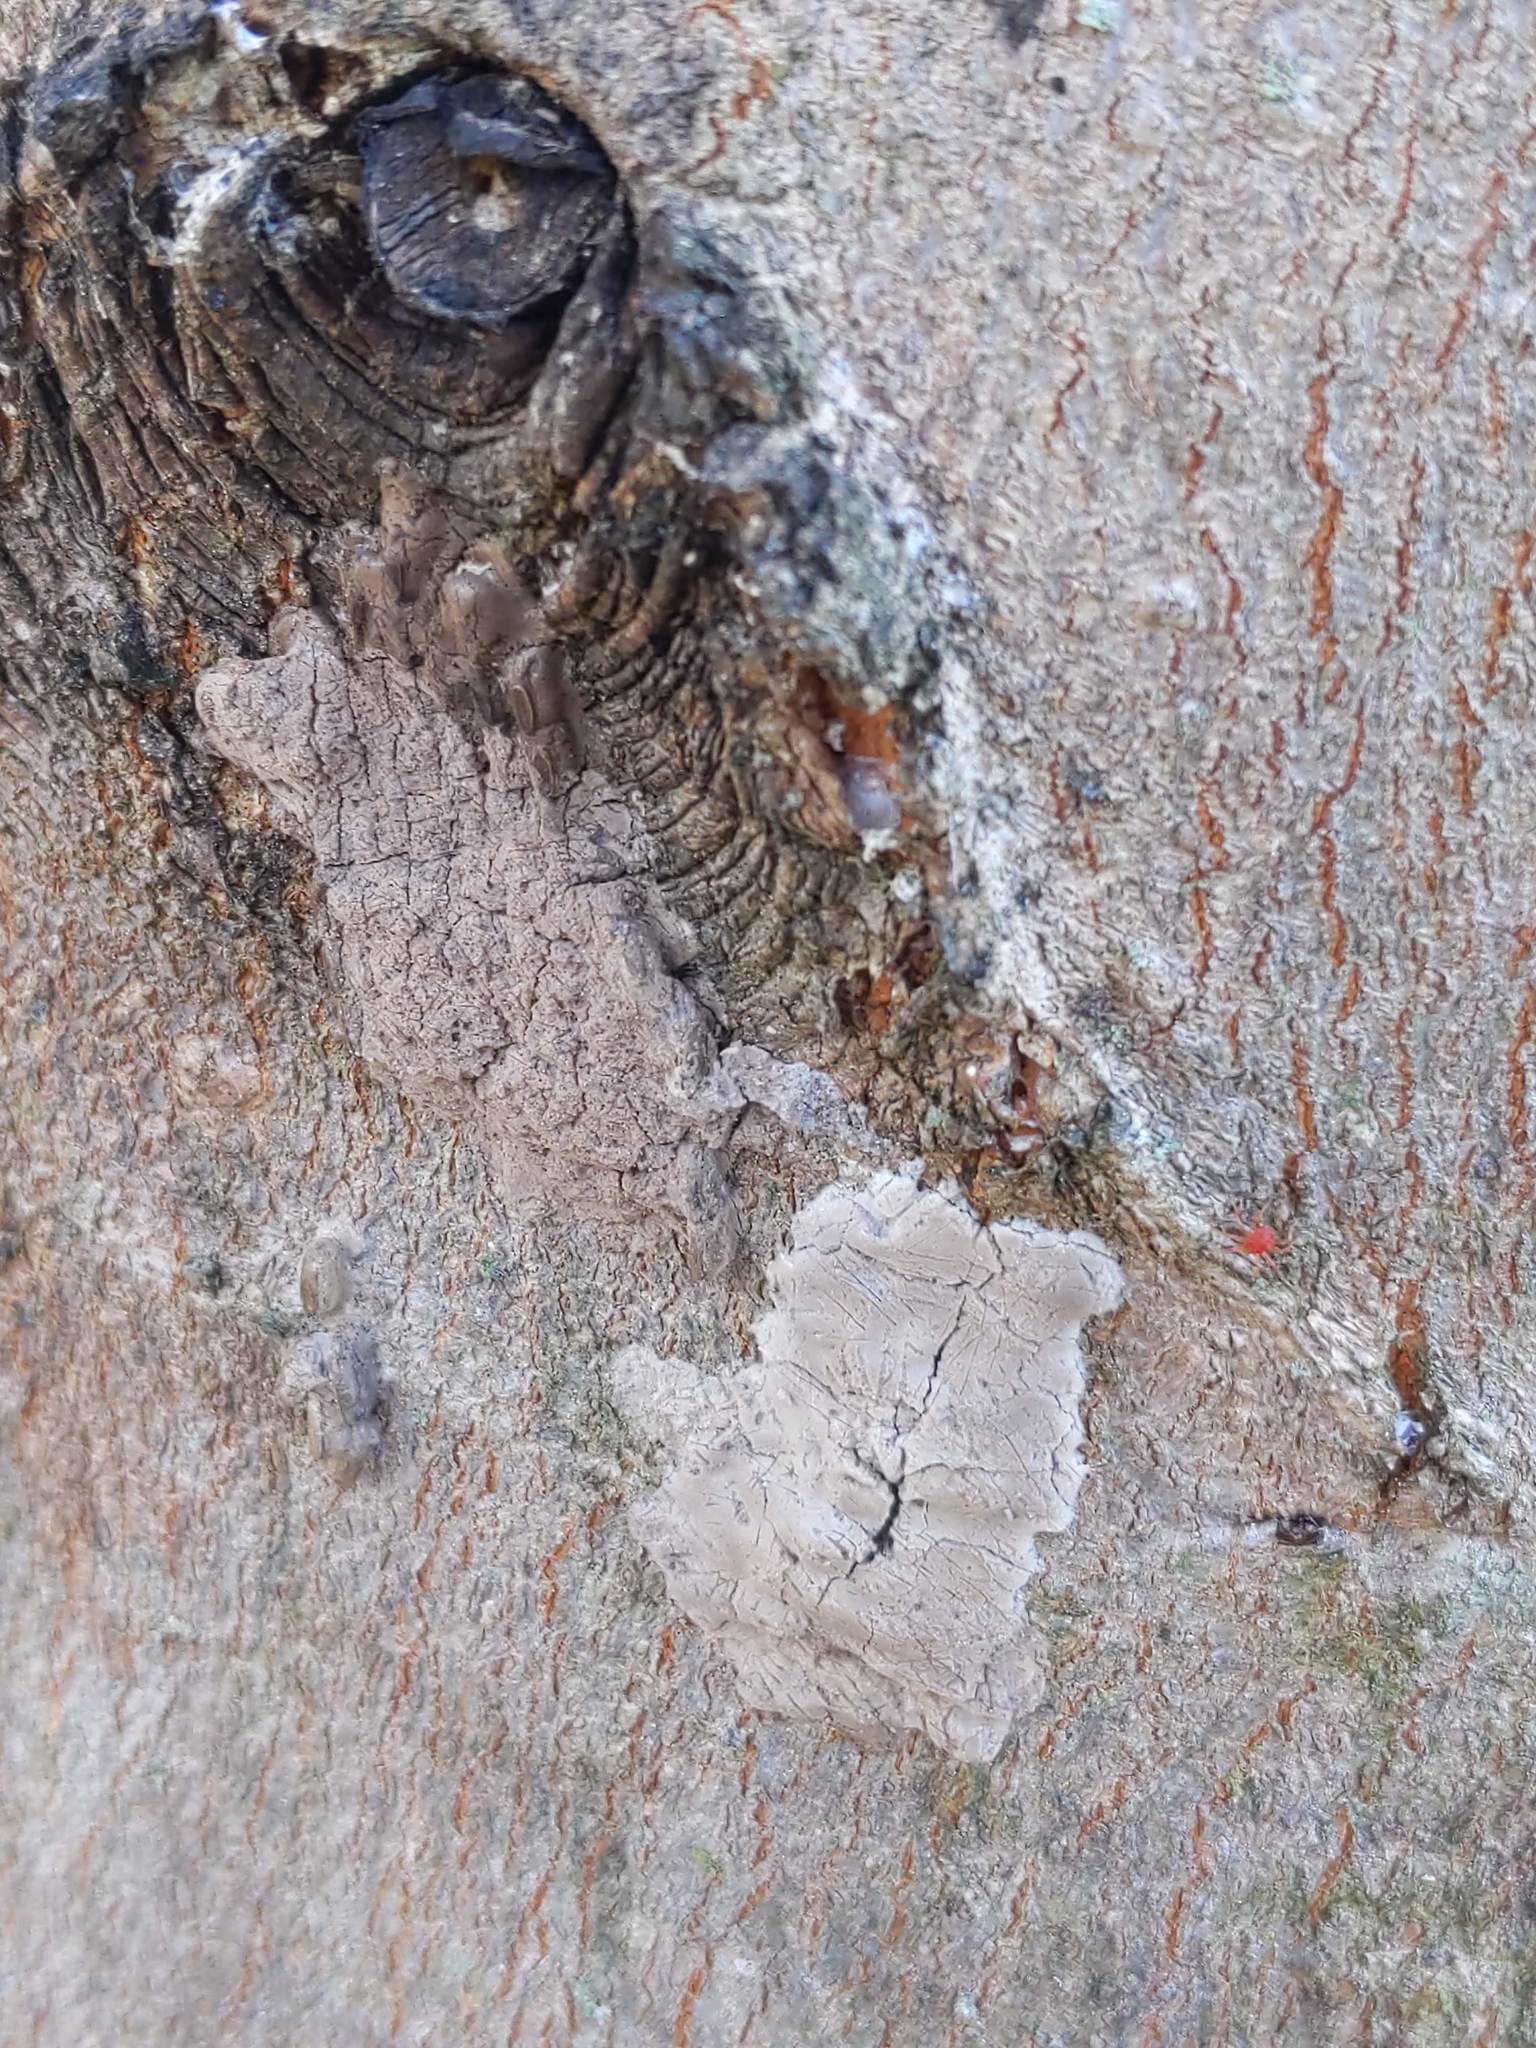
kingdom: Animalia
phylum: Arthropoda
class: Insecta
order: Hemiptera
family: Fulgoridae
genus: Lycorma
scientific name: Lycorma delicatula
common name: Spotted lanternfly
